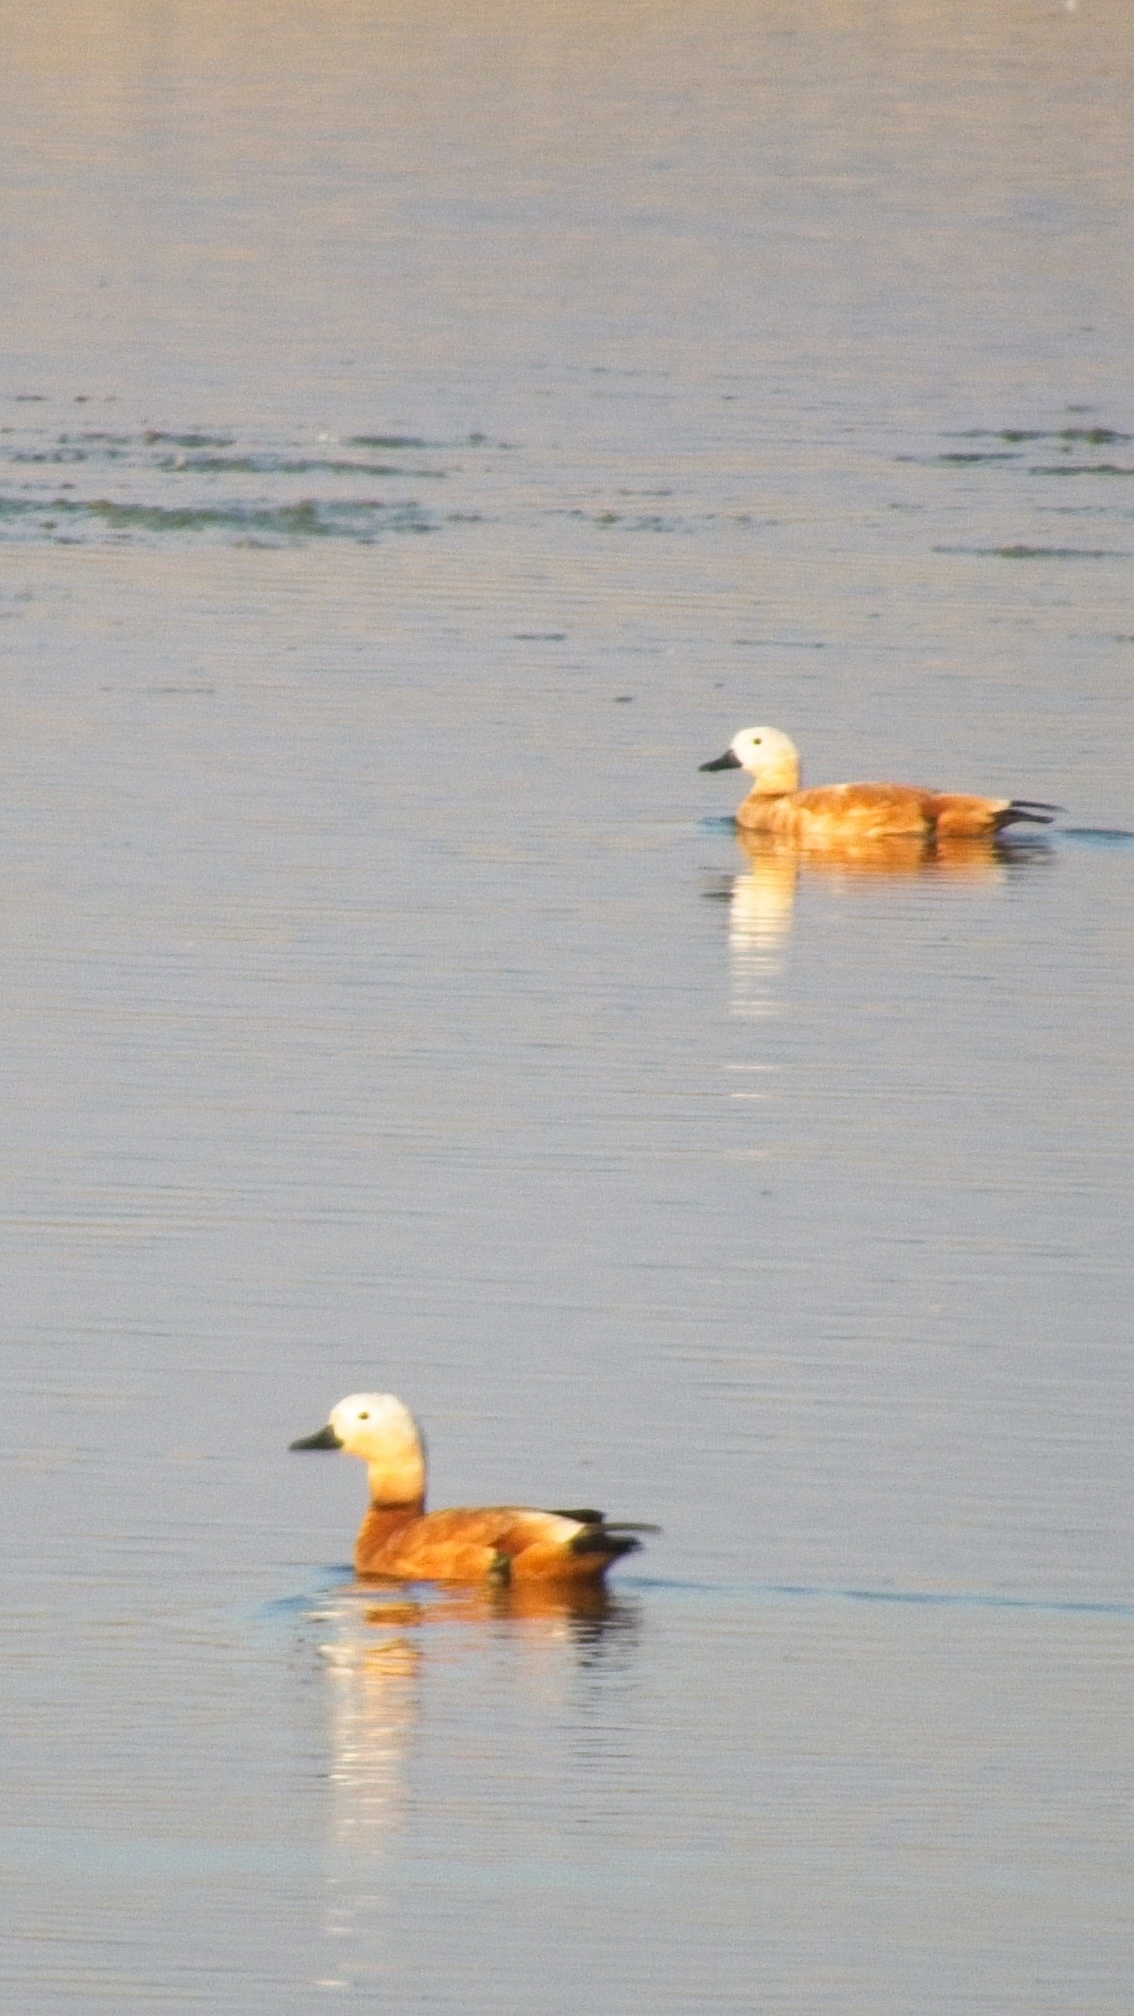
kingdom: Animalia
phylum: Chordata
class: Aves
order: Anseriformes
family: Anatidae
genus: Tadorna
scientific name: Tadorna ferruginea
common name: Ruddy shelduck
